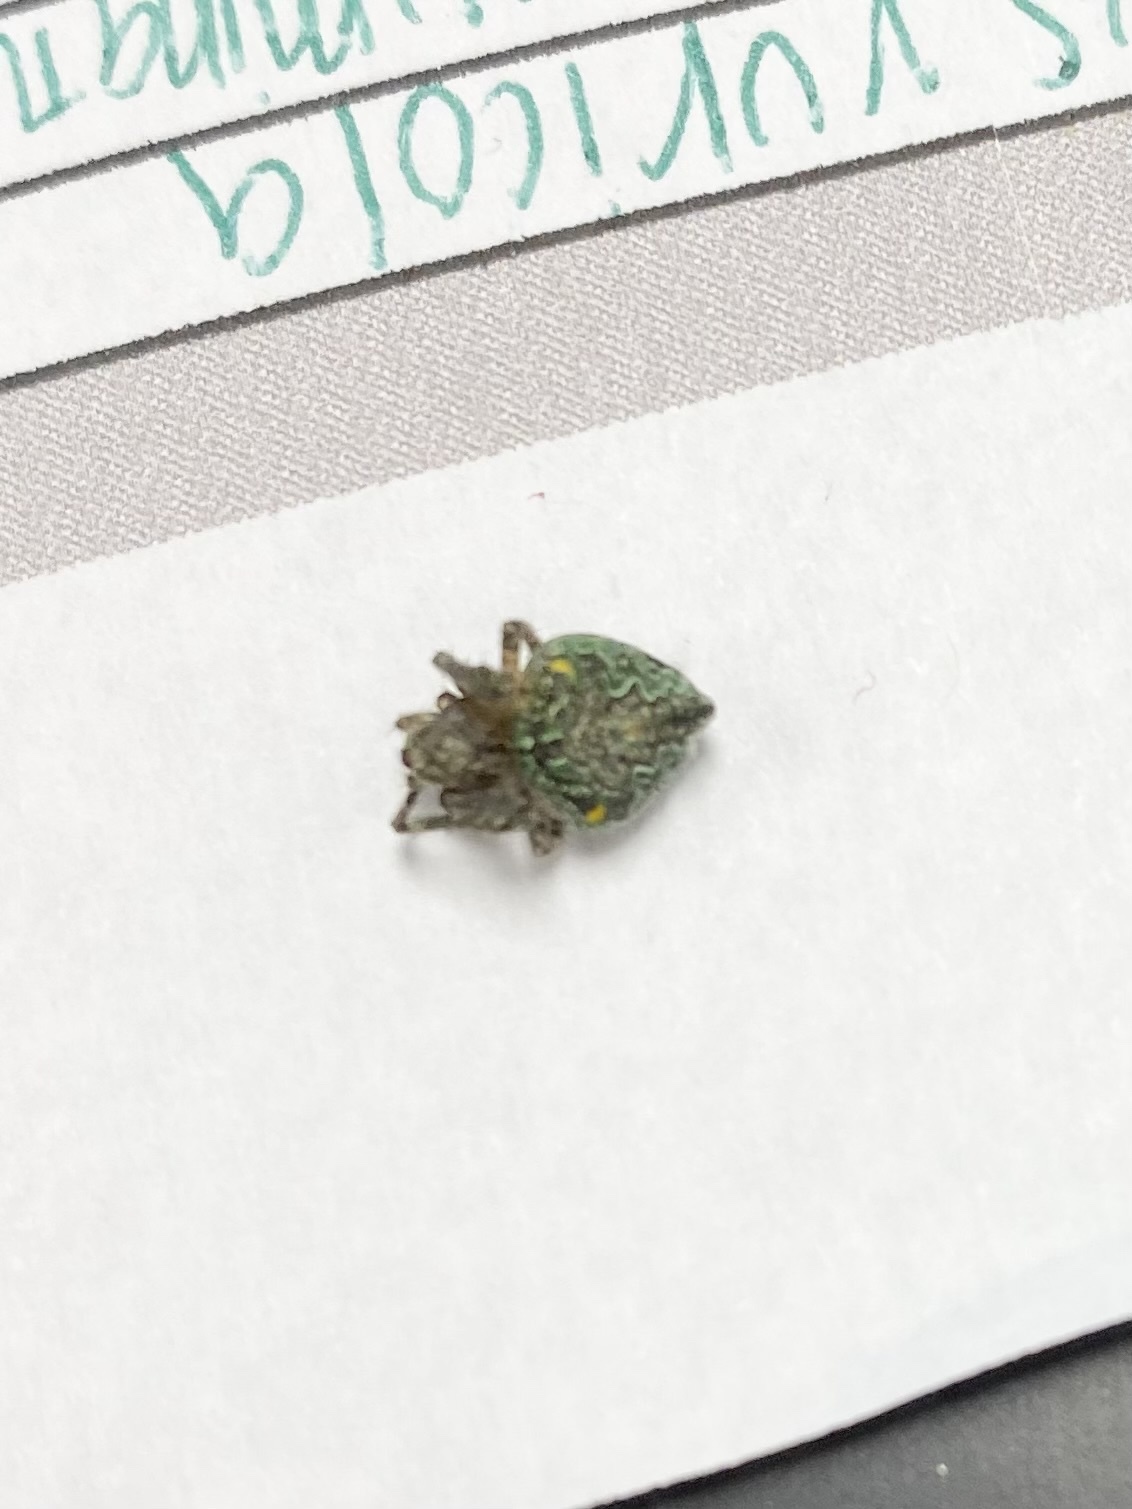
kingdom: Animalia
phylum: Arthropoda
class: Arachnida
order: Araneae
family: Araneidae
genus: Eustala
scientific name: Eustala anastera
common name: Orb weavers
